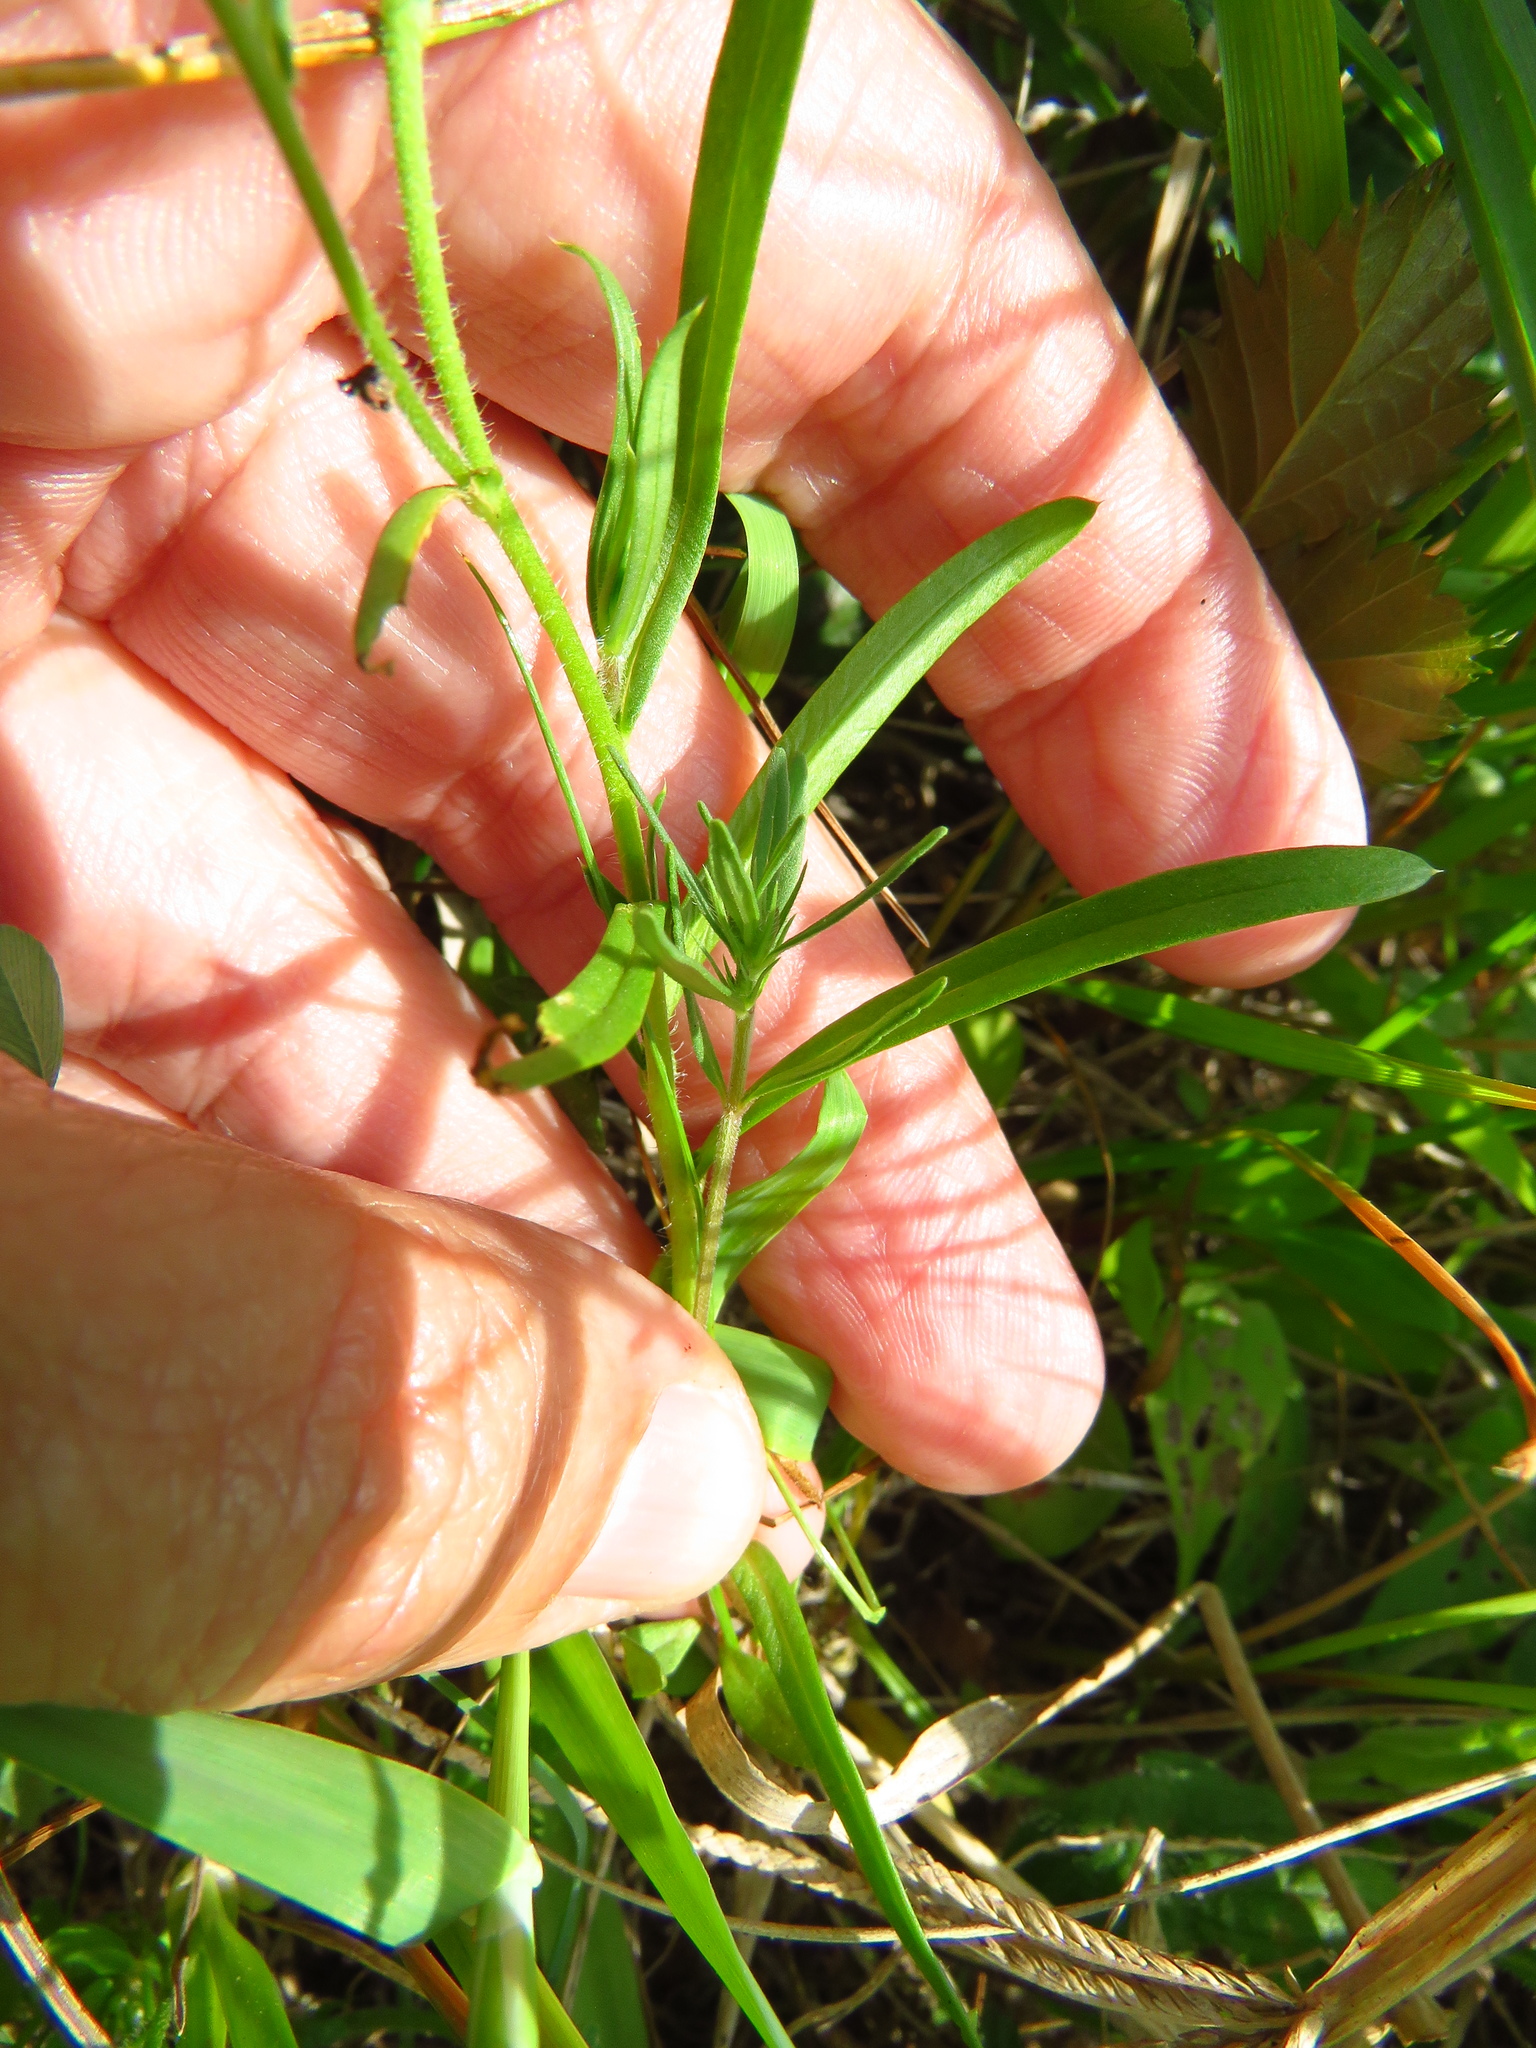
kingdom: Plantae
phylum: Tracheophyta
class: Magnoliopsida
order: Ericales
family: Polemoniaceae
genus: Phlox
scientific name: Phlox cuspidata
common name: Pointed phlox
